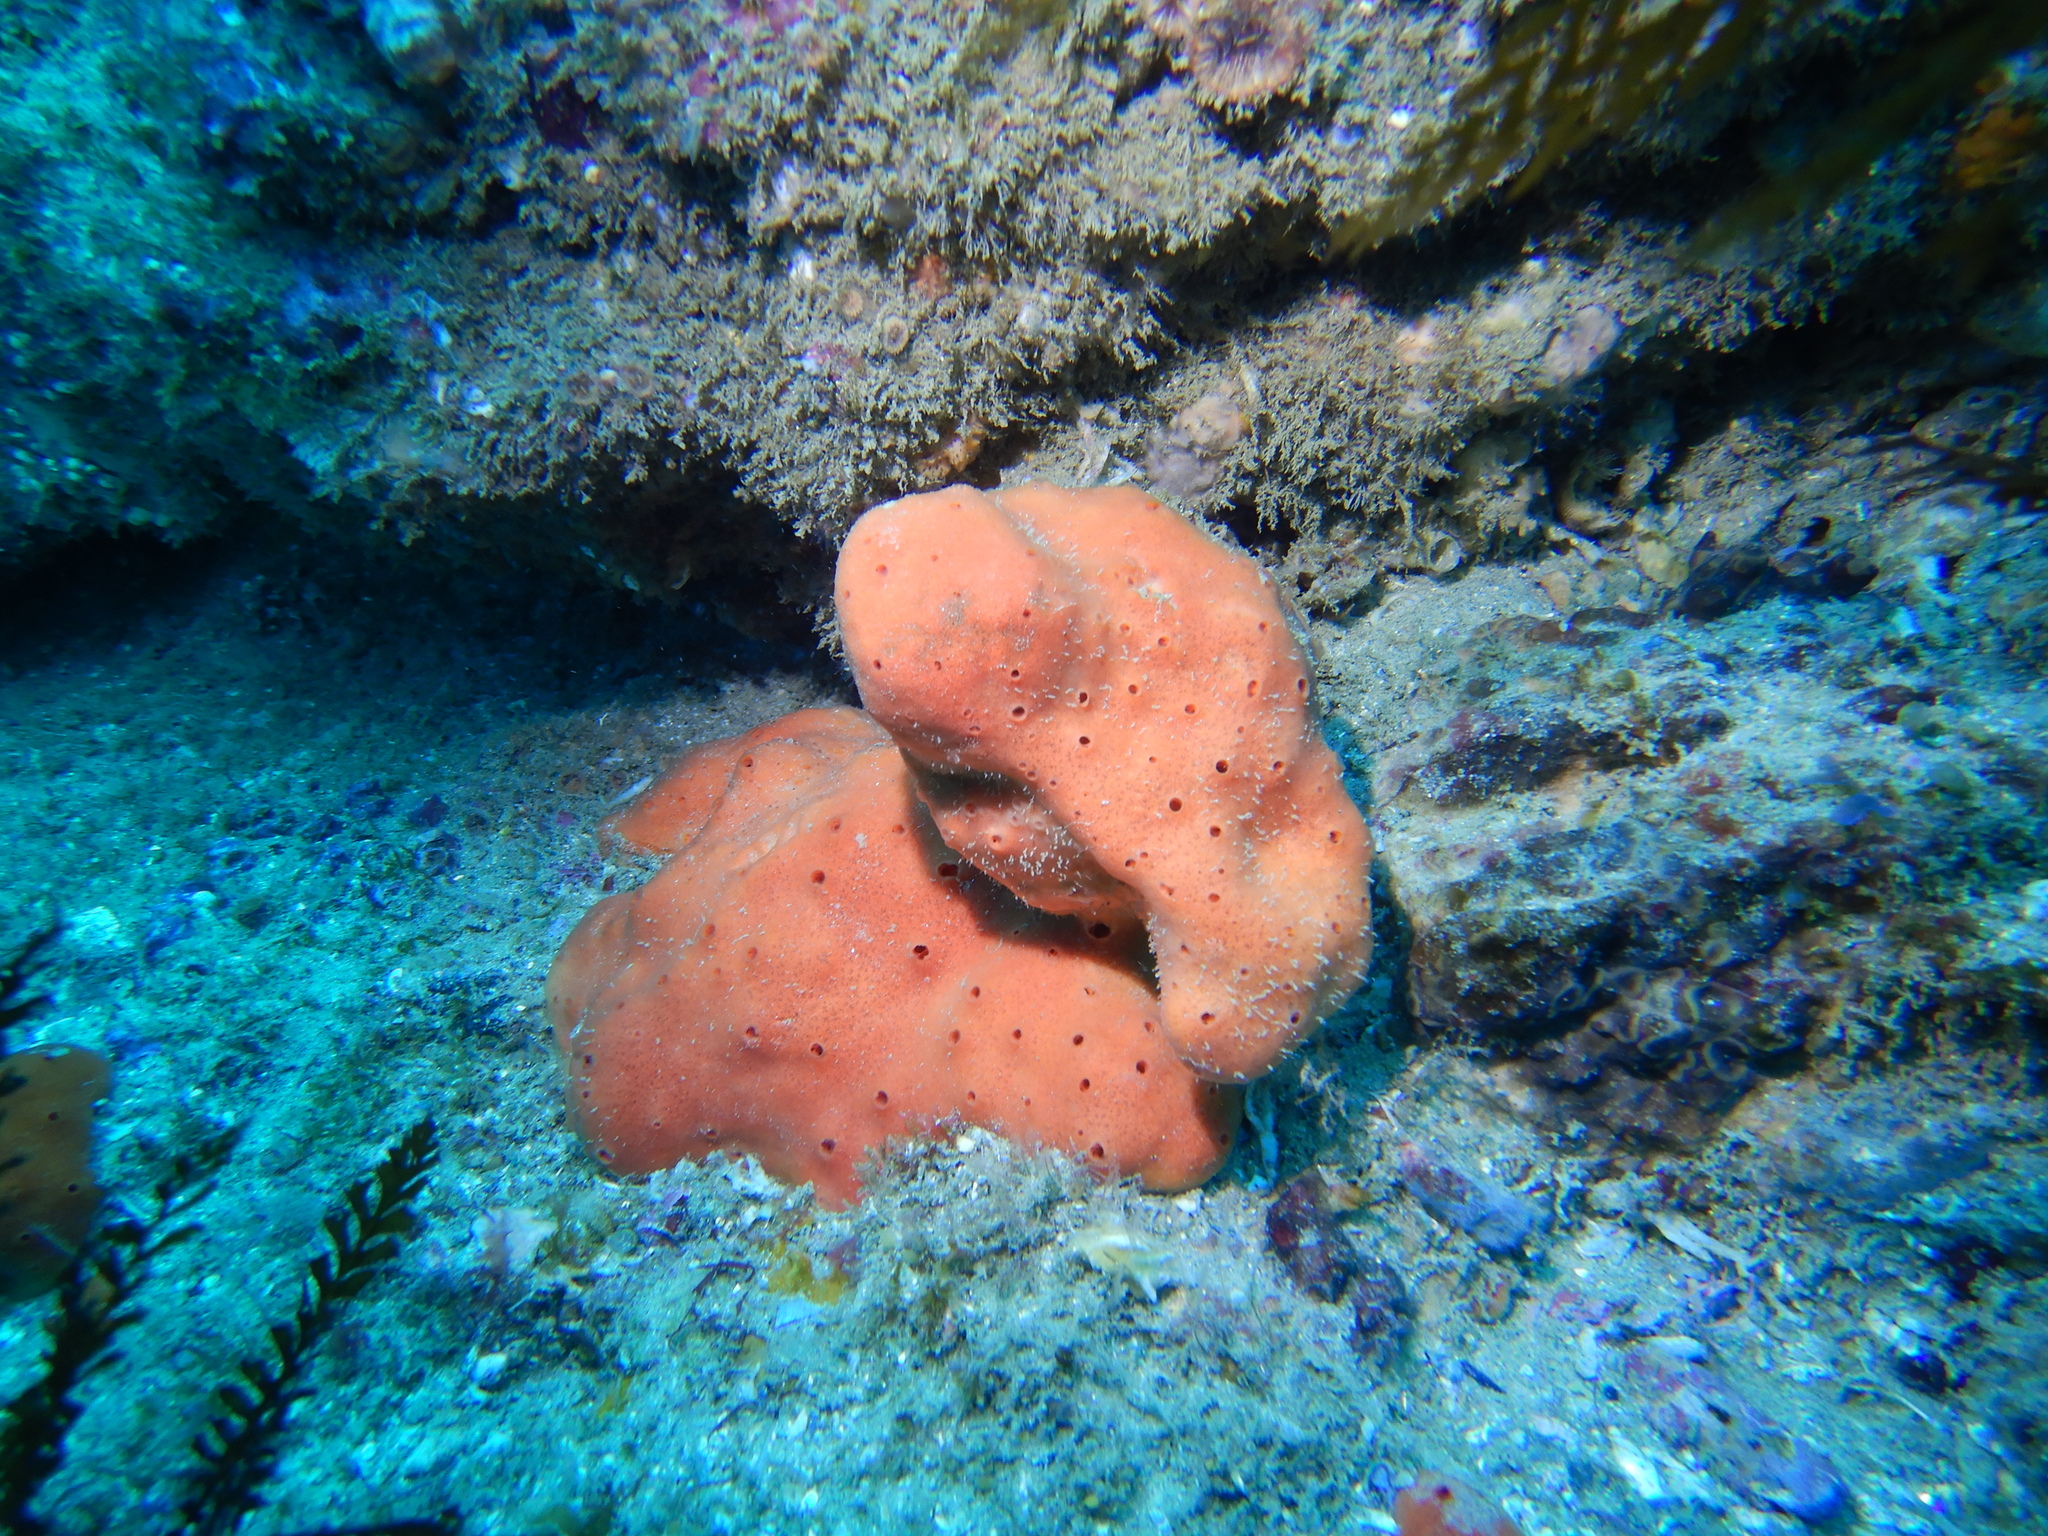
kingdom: Animalia
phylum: Porifera
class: Demospongiae
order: Axinellida
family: Axinellidae
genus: Dragmacidon
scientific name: Dragmacidon mexicanum
